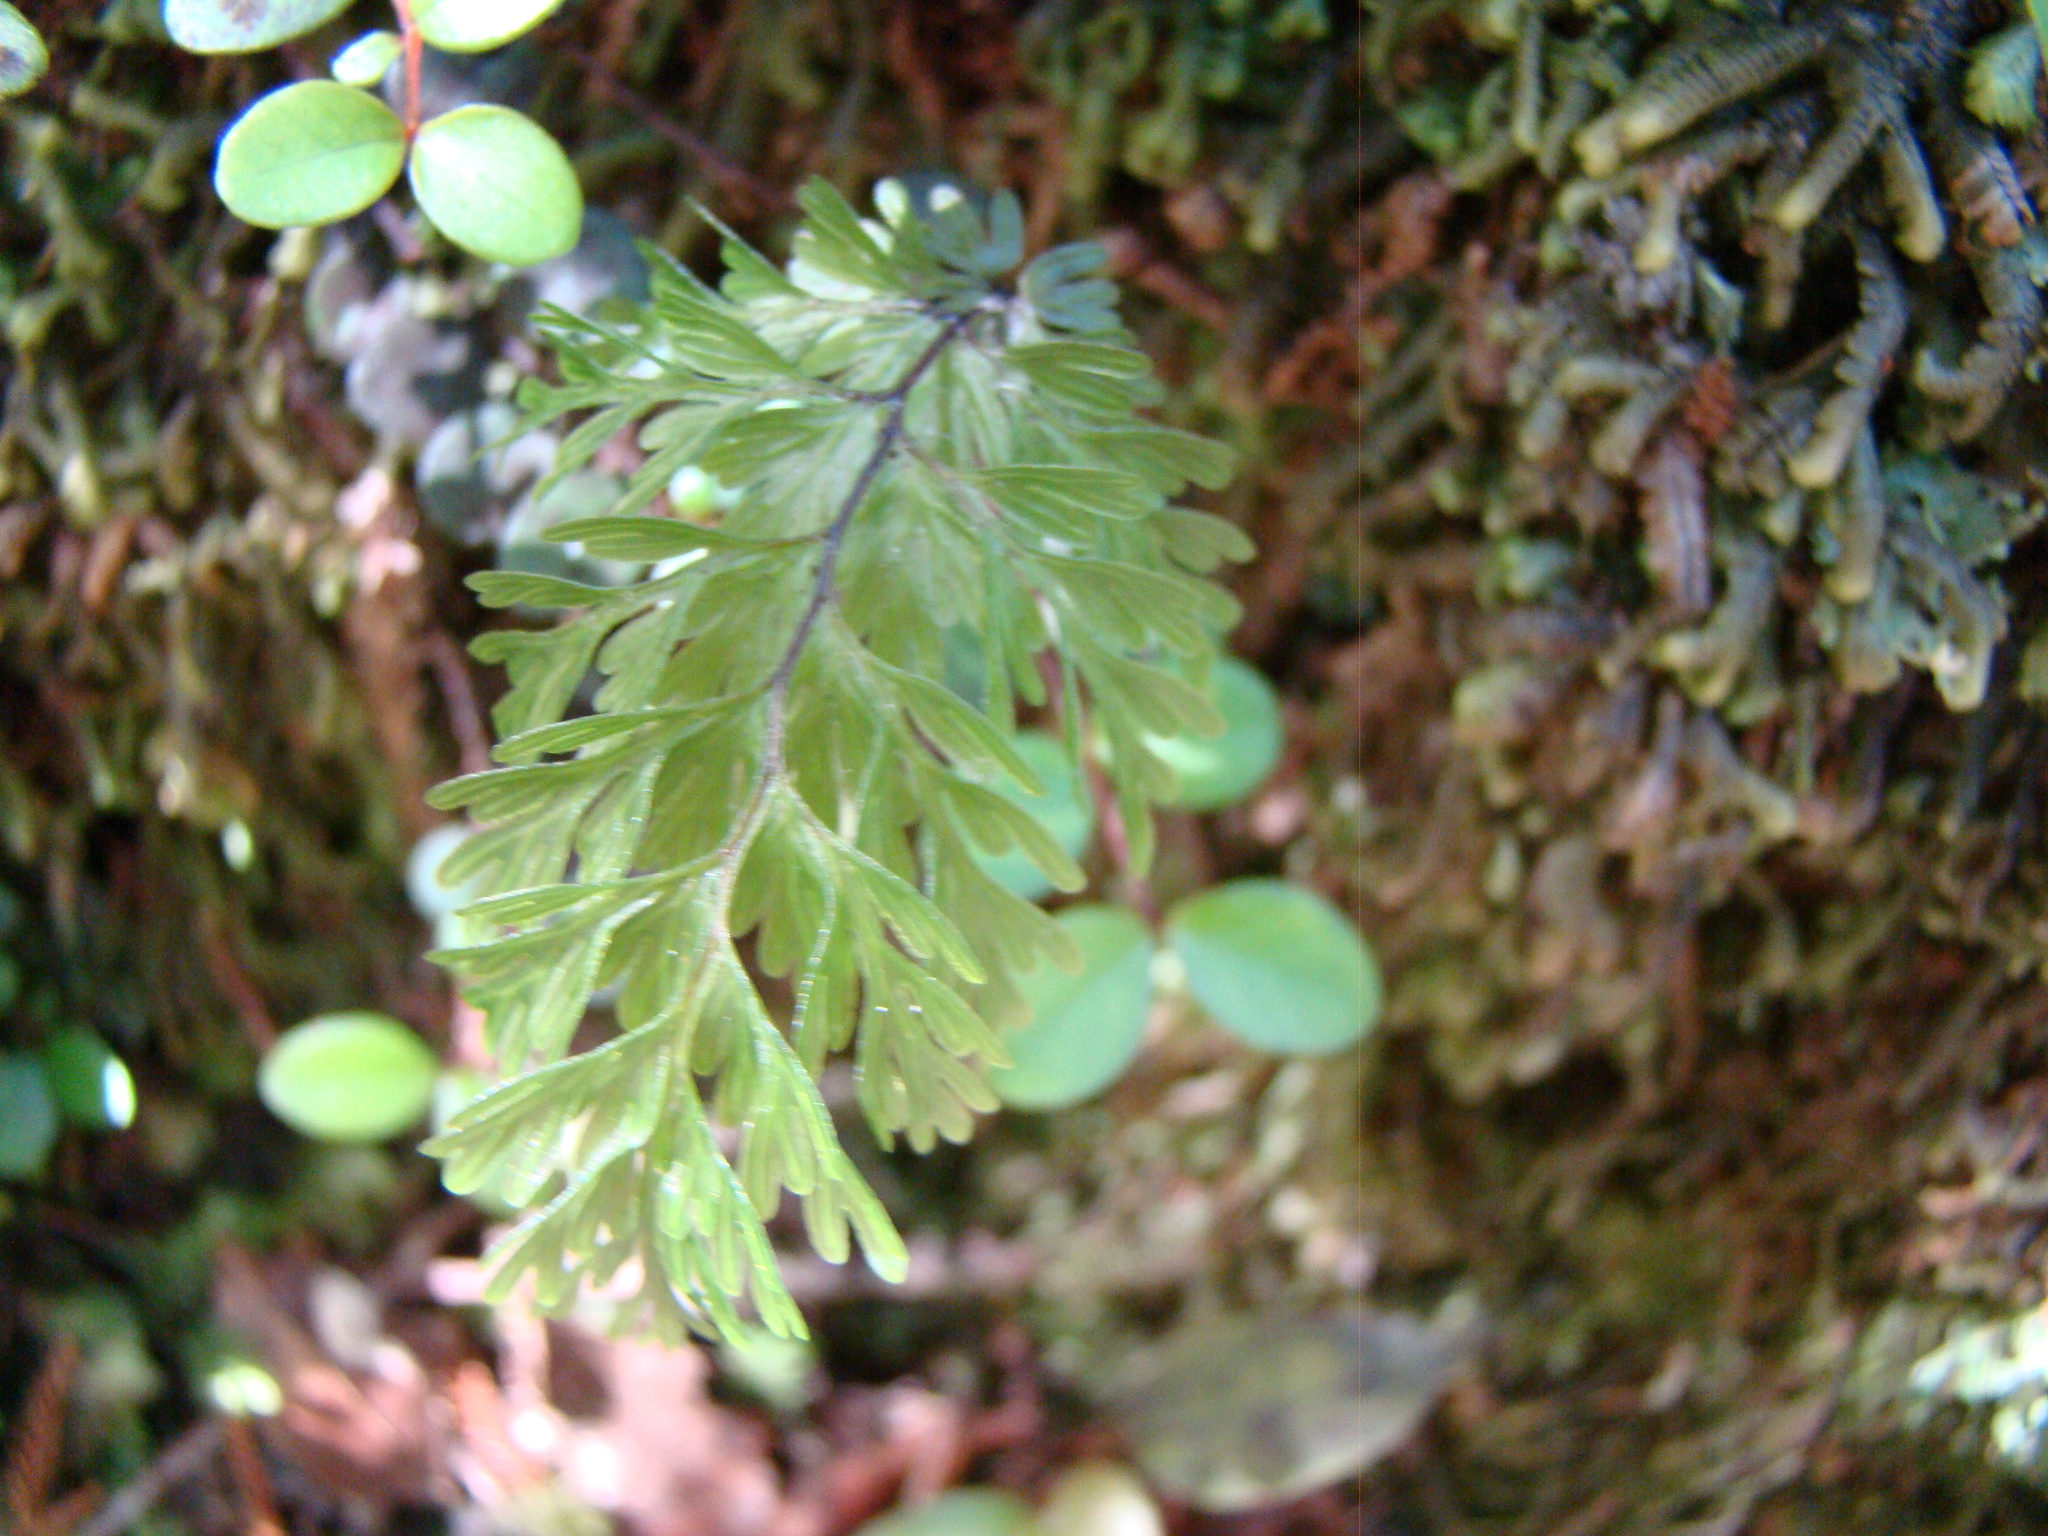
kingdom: Plantae
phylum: Tracheophyta
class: Polypodiopsida
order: Hymenophyllales
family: Hymenophyllaceae
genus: Hymenophyllum
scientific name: Hymenophyllum demissum
